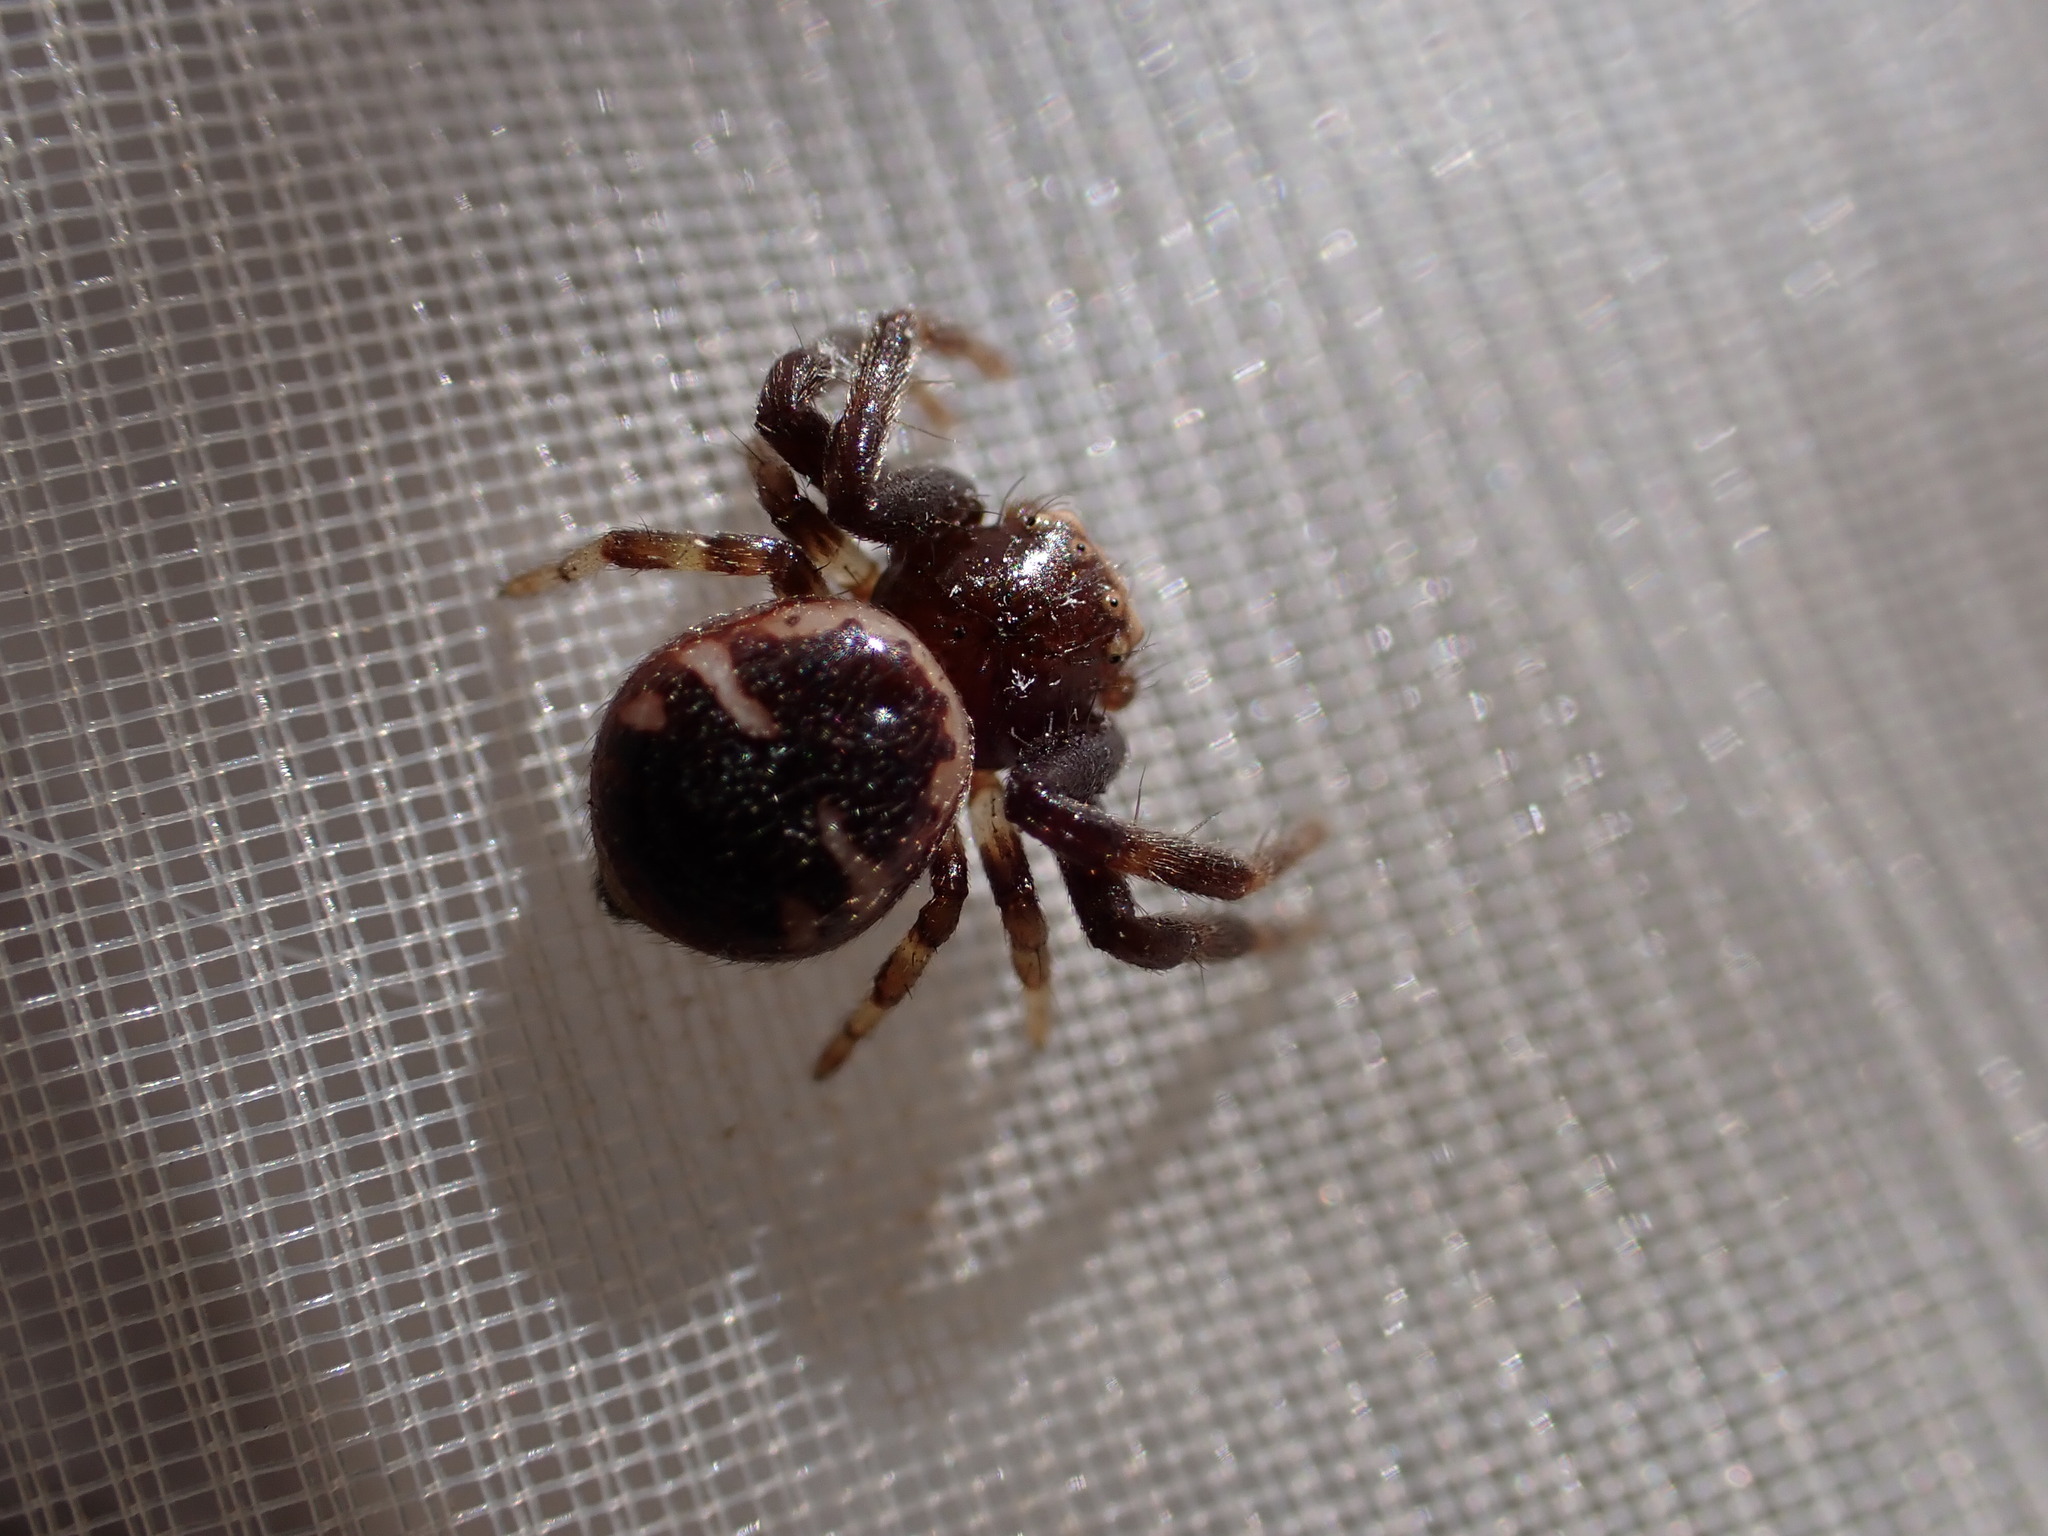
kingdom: Animalia
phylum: Arthropoda
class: Arachnida
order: Araneae
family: Thomisidae
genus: Synema
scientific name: Synema globosum
